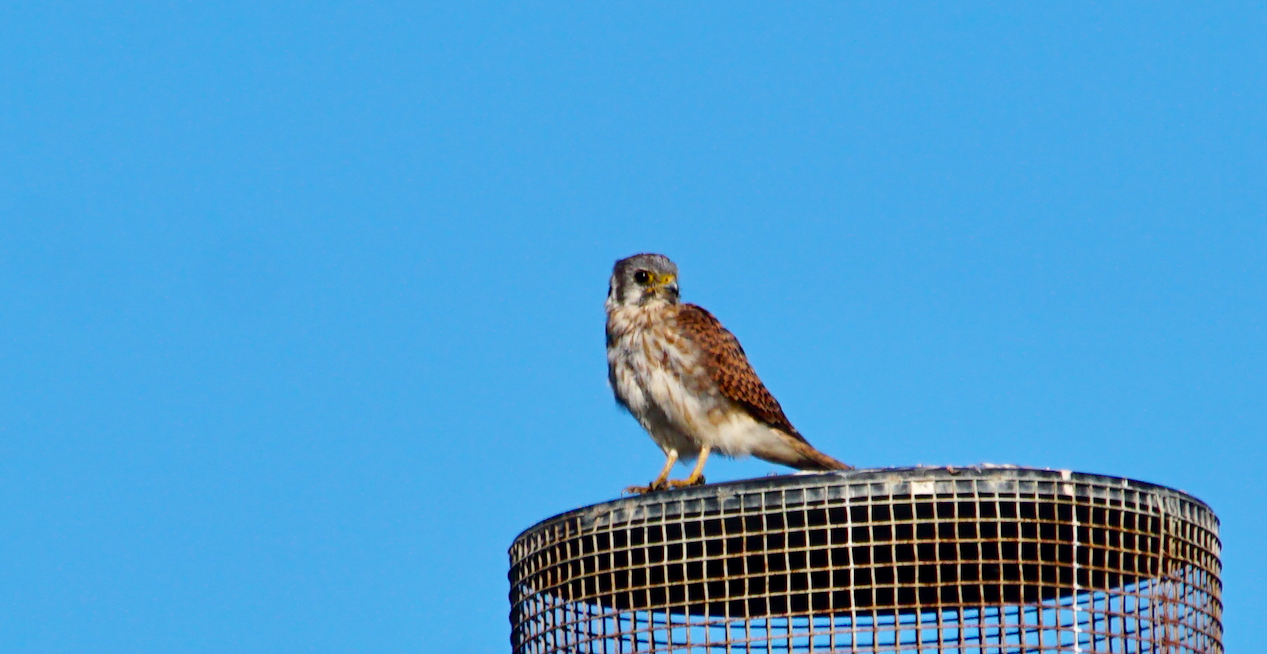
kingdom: Animalia
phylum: Chordata
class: Aves
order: Falconiformes
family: Falconidae
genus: Falco
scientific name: Falco sparverius
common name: American kestrel
